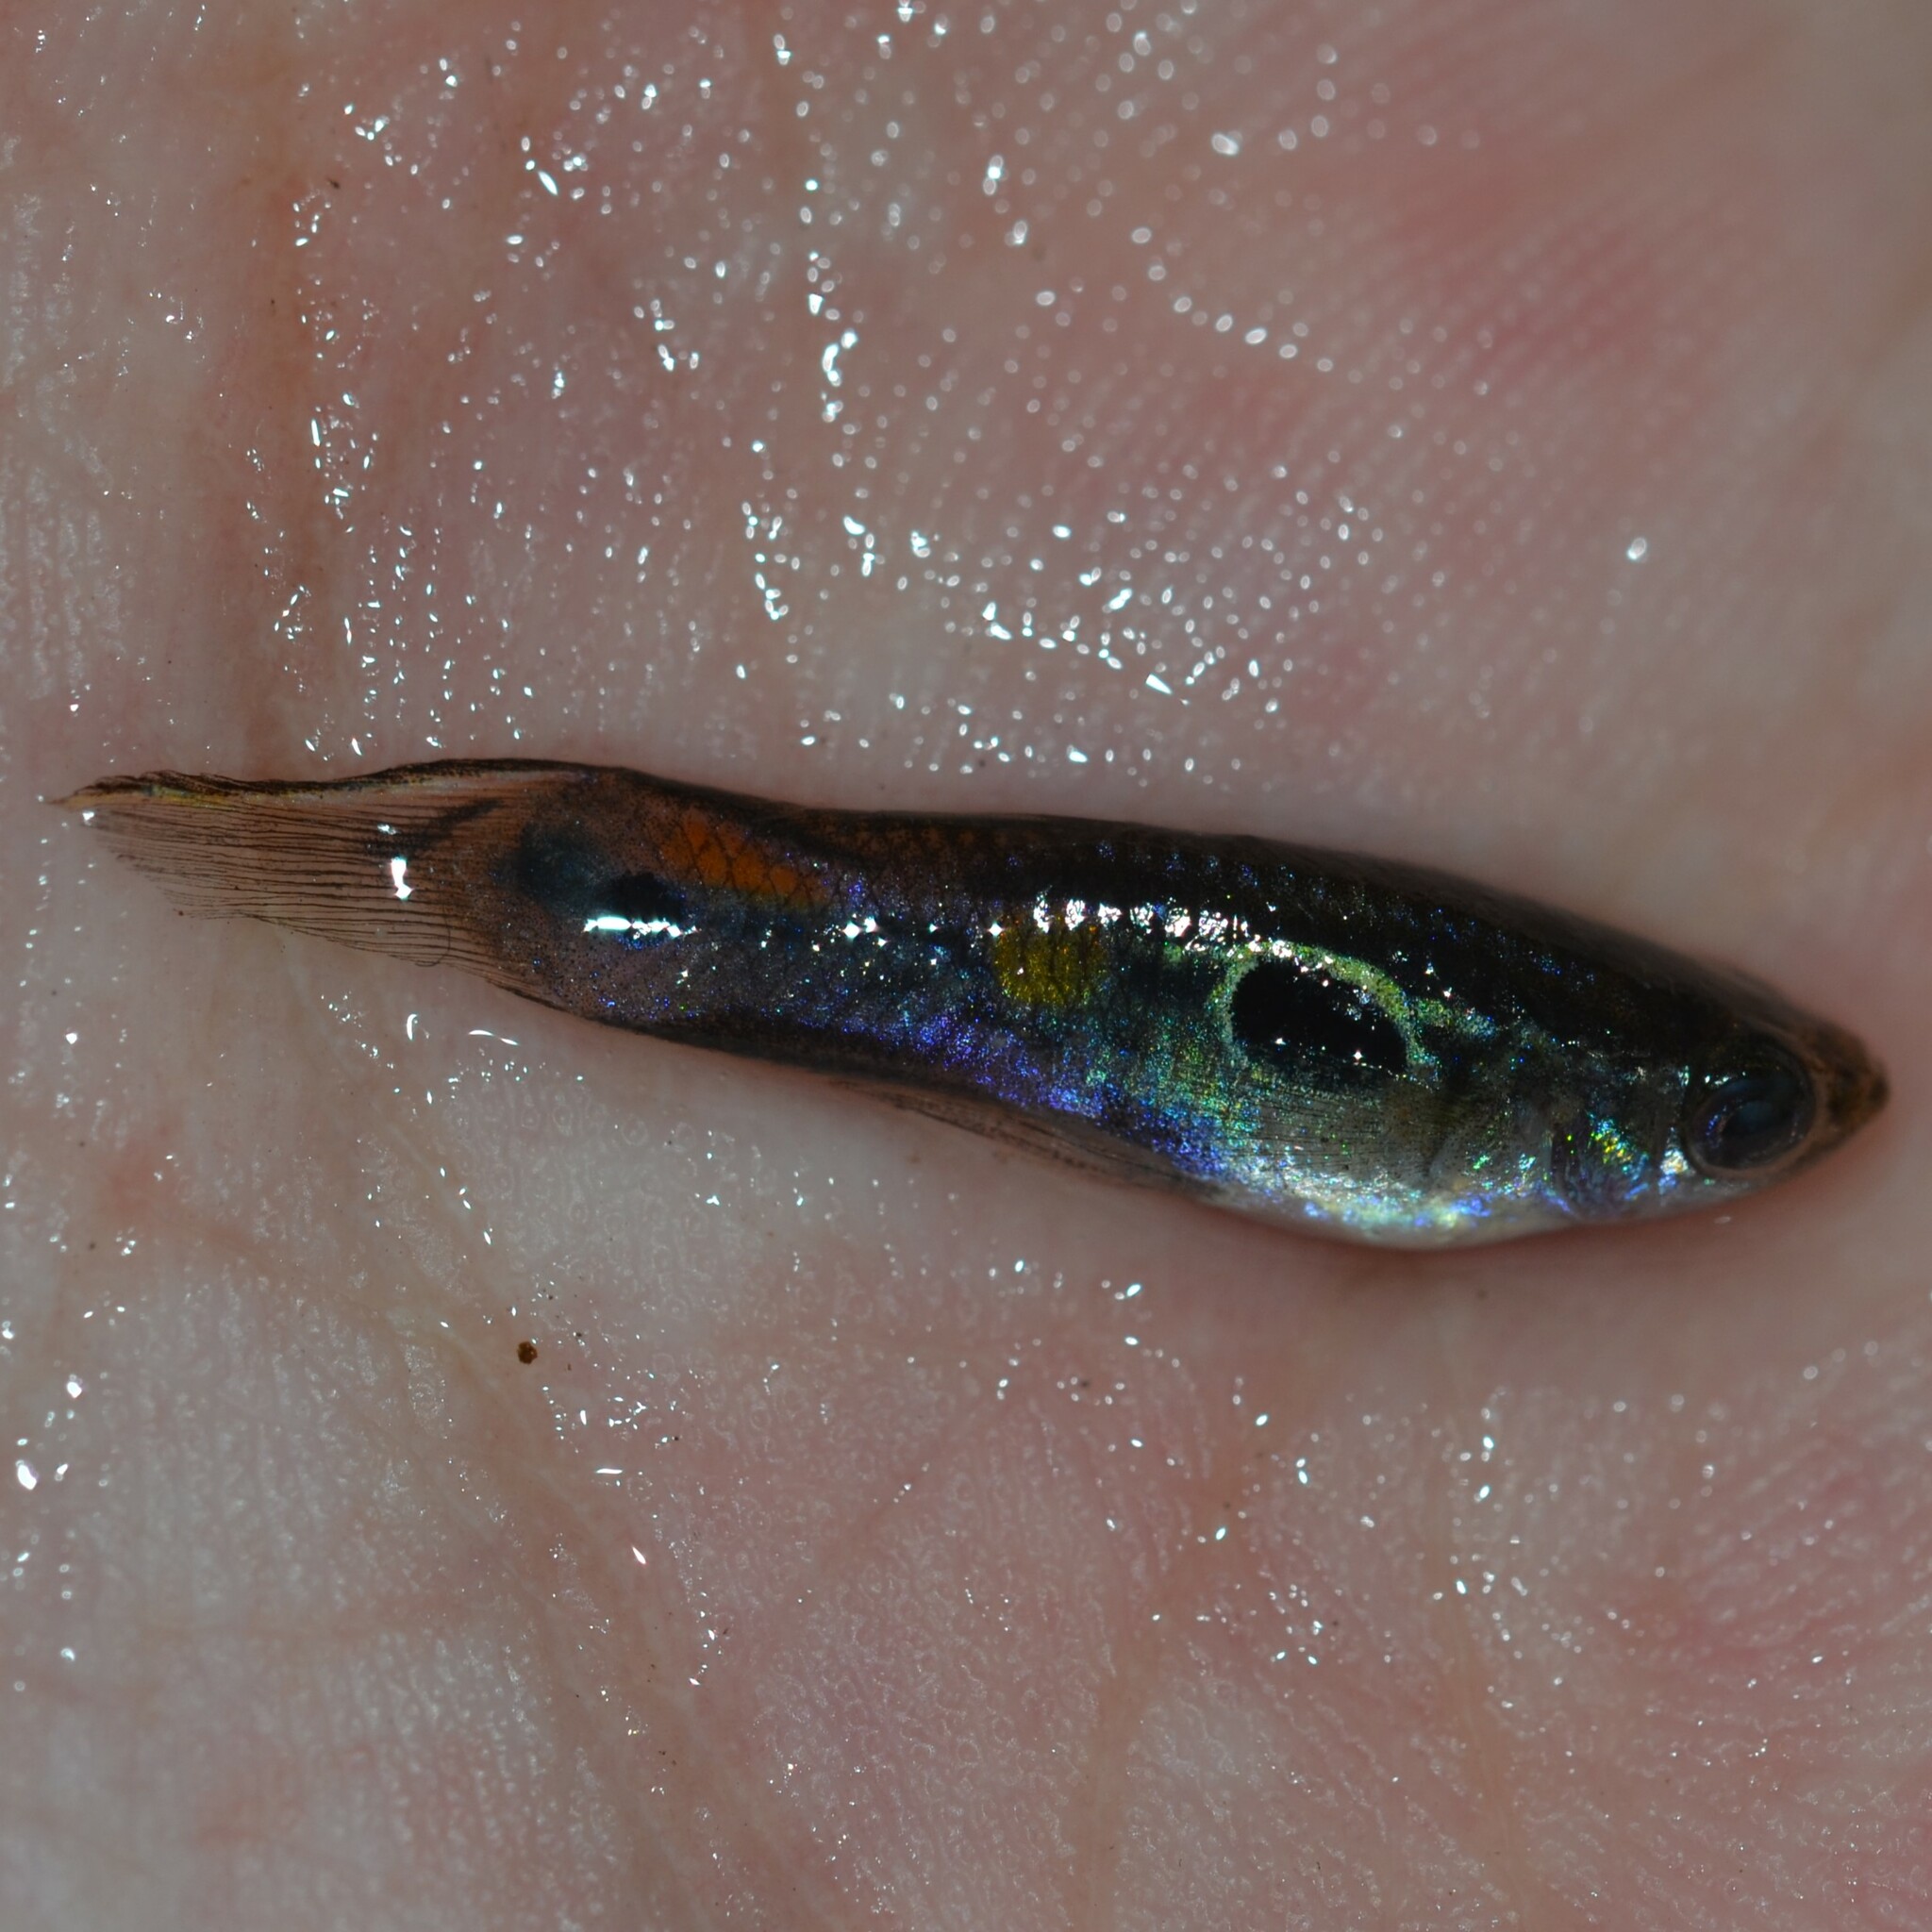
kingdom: Animalia
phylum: Chordata
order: Cyprinodontiformes
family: Poeciliidae
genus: Poecilia
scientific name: Poecilia reticulata
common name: Guppy
